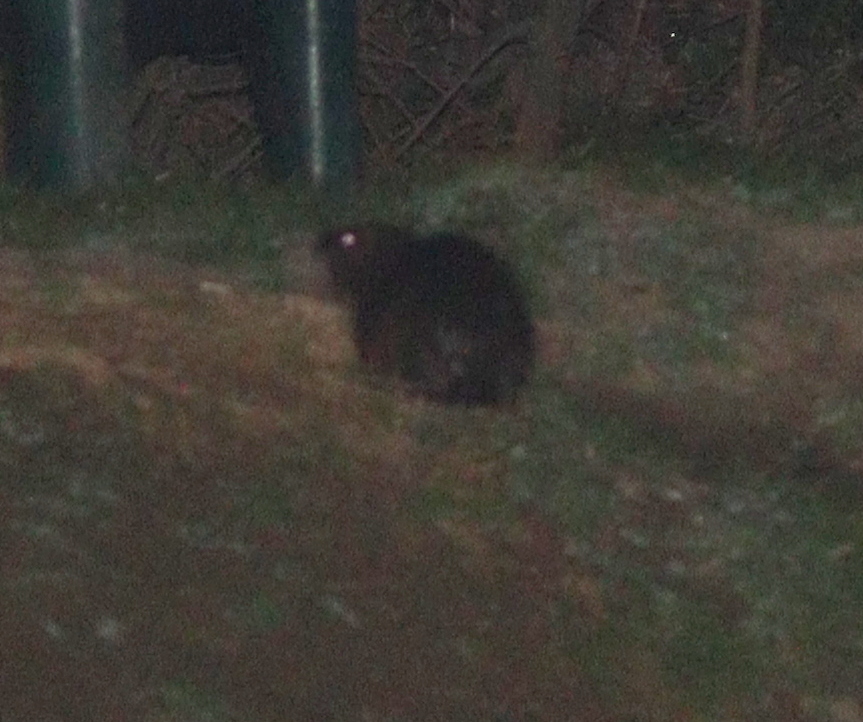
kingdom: Animalia
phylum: Chordata
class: Mammalia
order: Rodentia
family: Castoridae
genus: Castor
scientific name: Castor fiber
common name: Eurasian beaver
